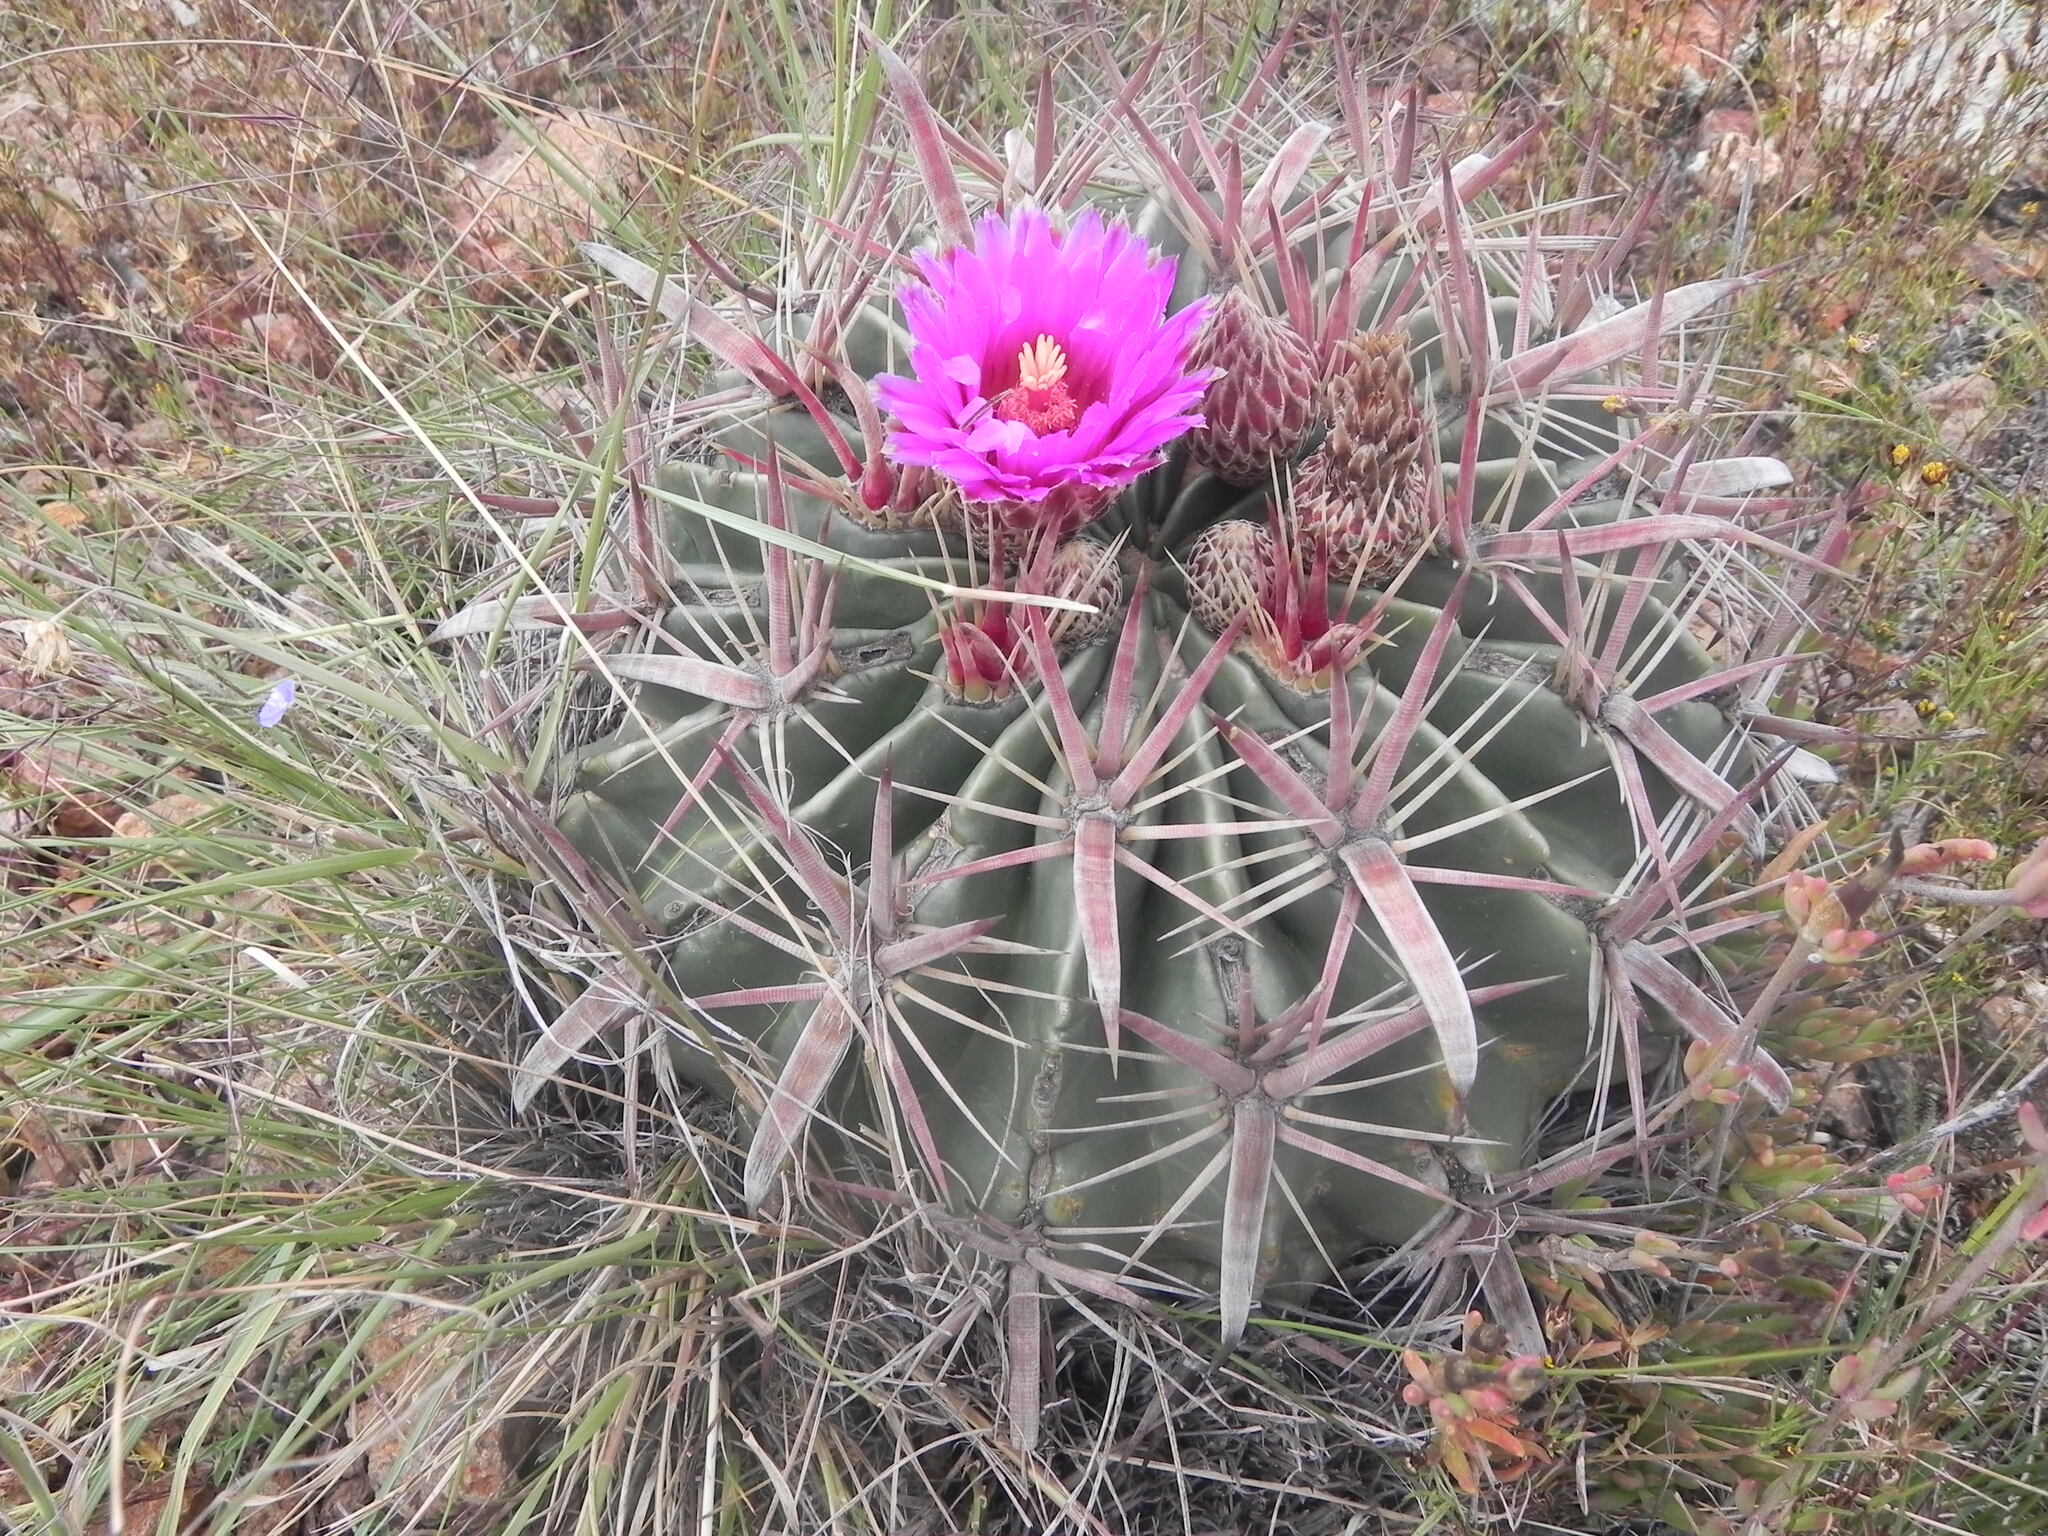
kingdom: Plantae
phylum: Tracheophyta
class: Magnoliopsida
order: Caryophyllales
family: Cactaceae
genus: Ferocactus
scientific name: Ferocactus latispinus
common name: Devil's-tongue cactus
